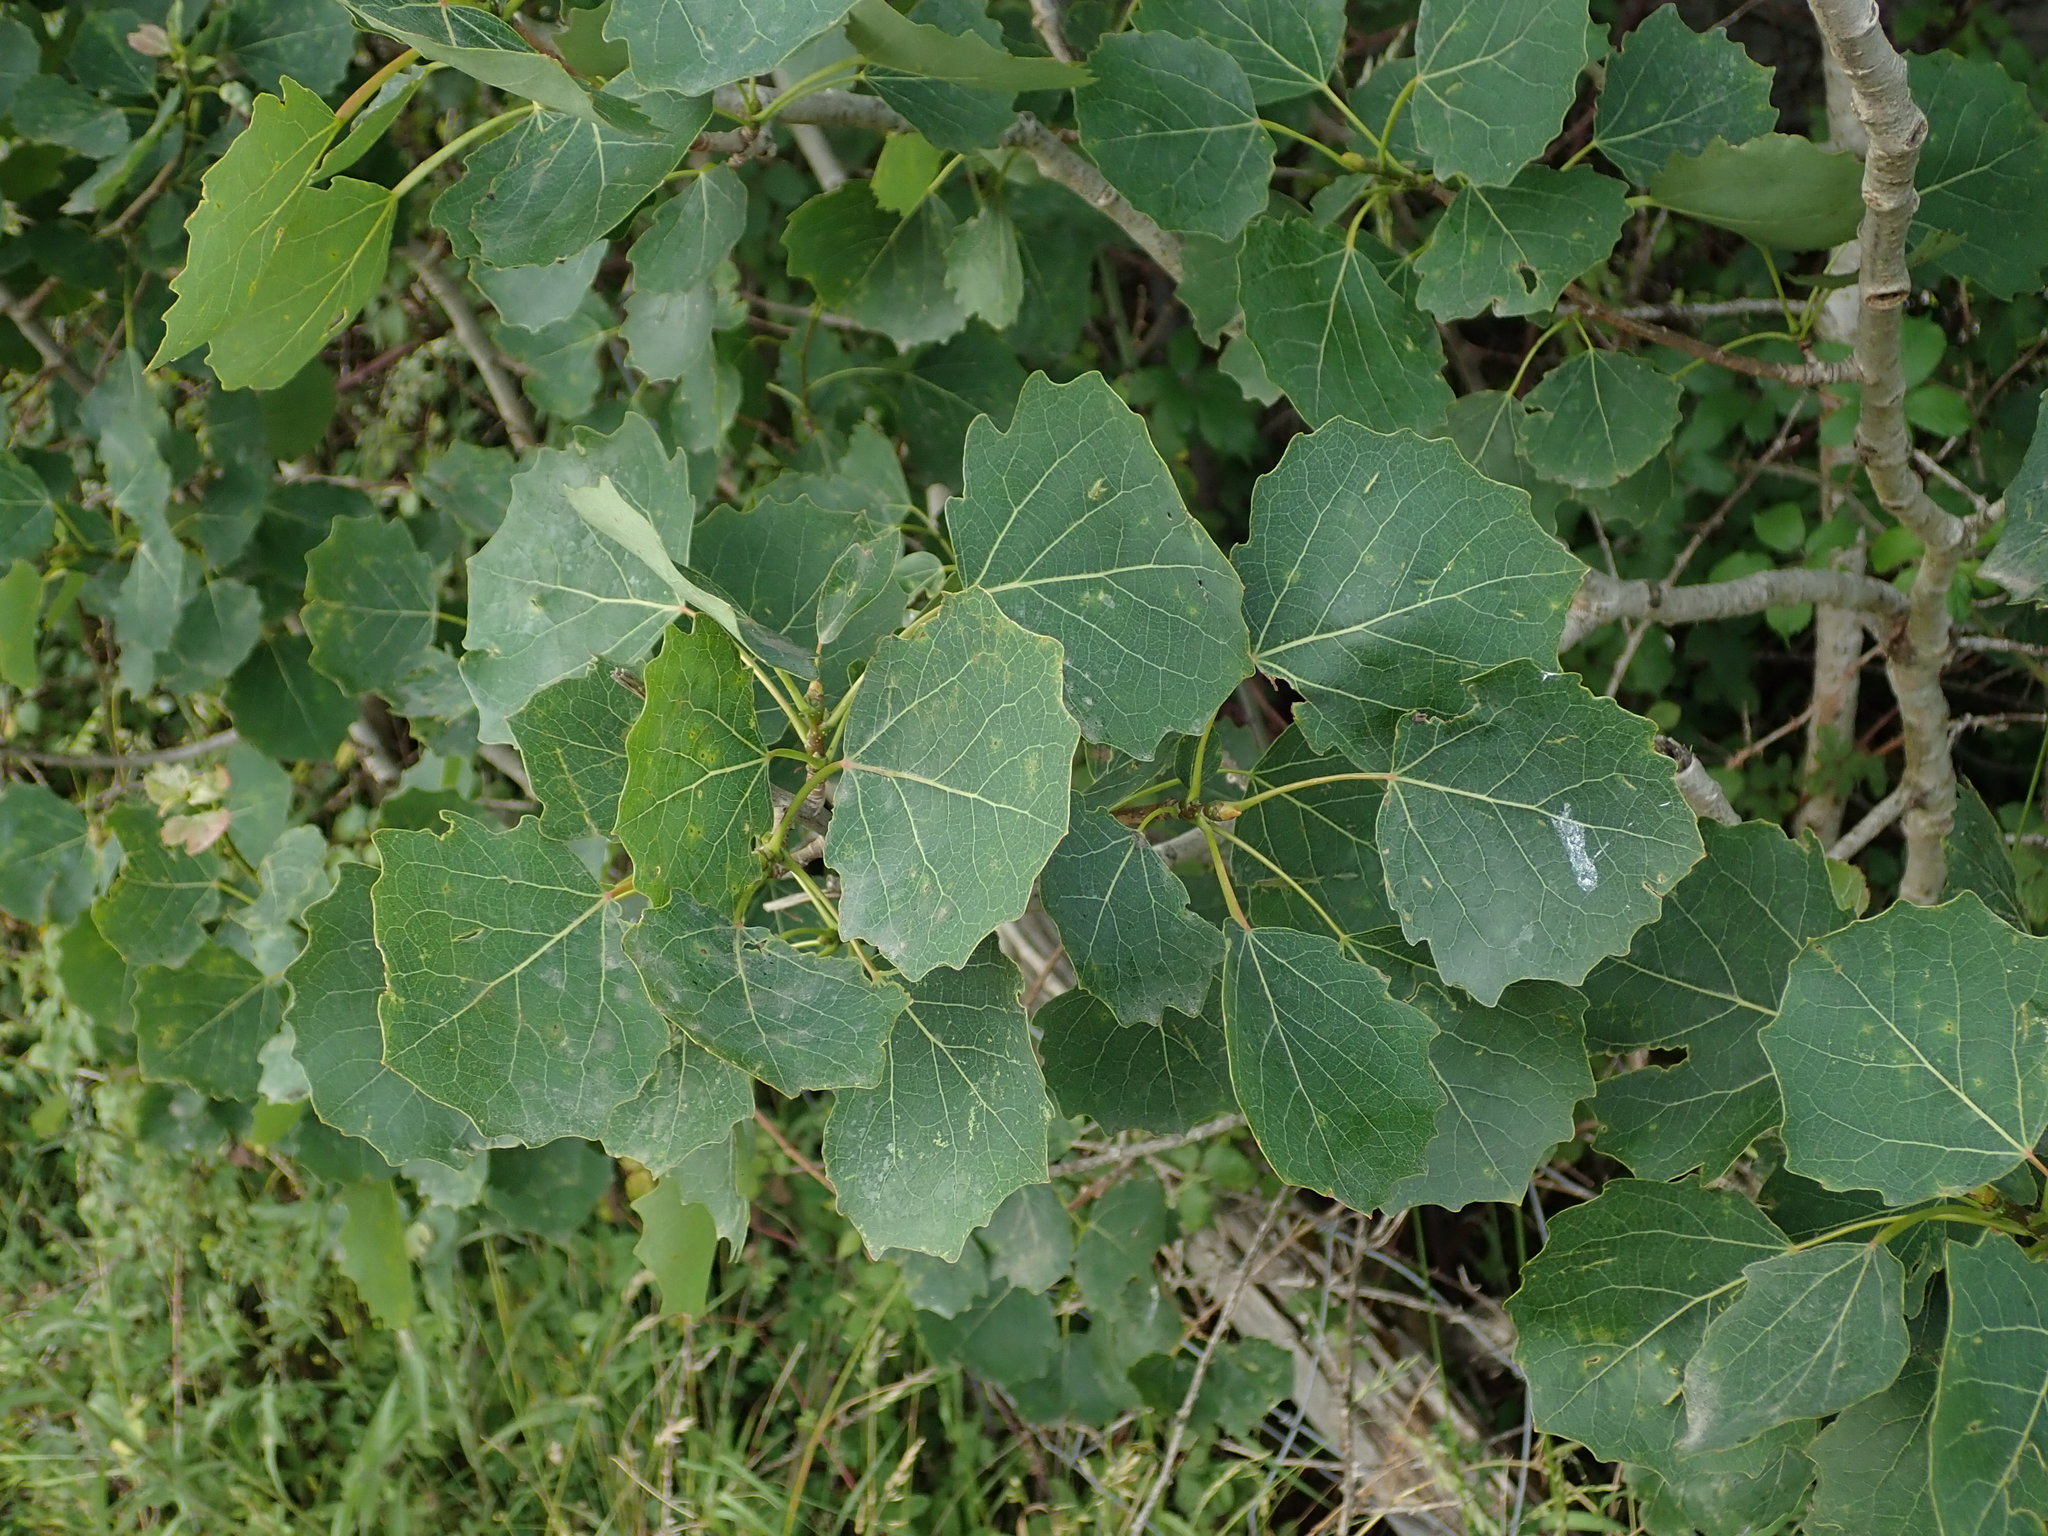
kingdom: Plantae
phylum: Tracheophyta
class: Magnoliopsida
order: Malpighiales
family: Salicaceae
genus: Populus
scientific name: Populus tremula
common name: European aspen
